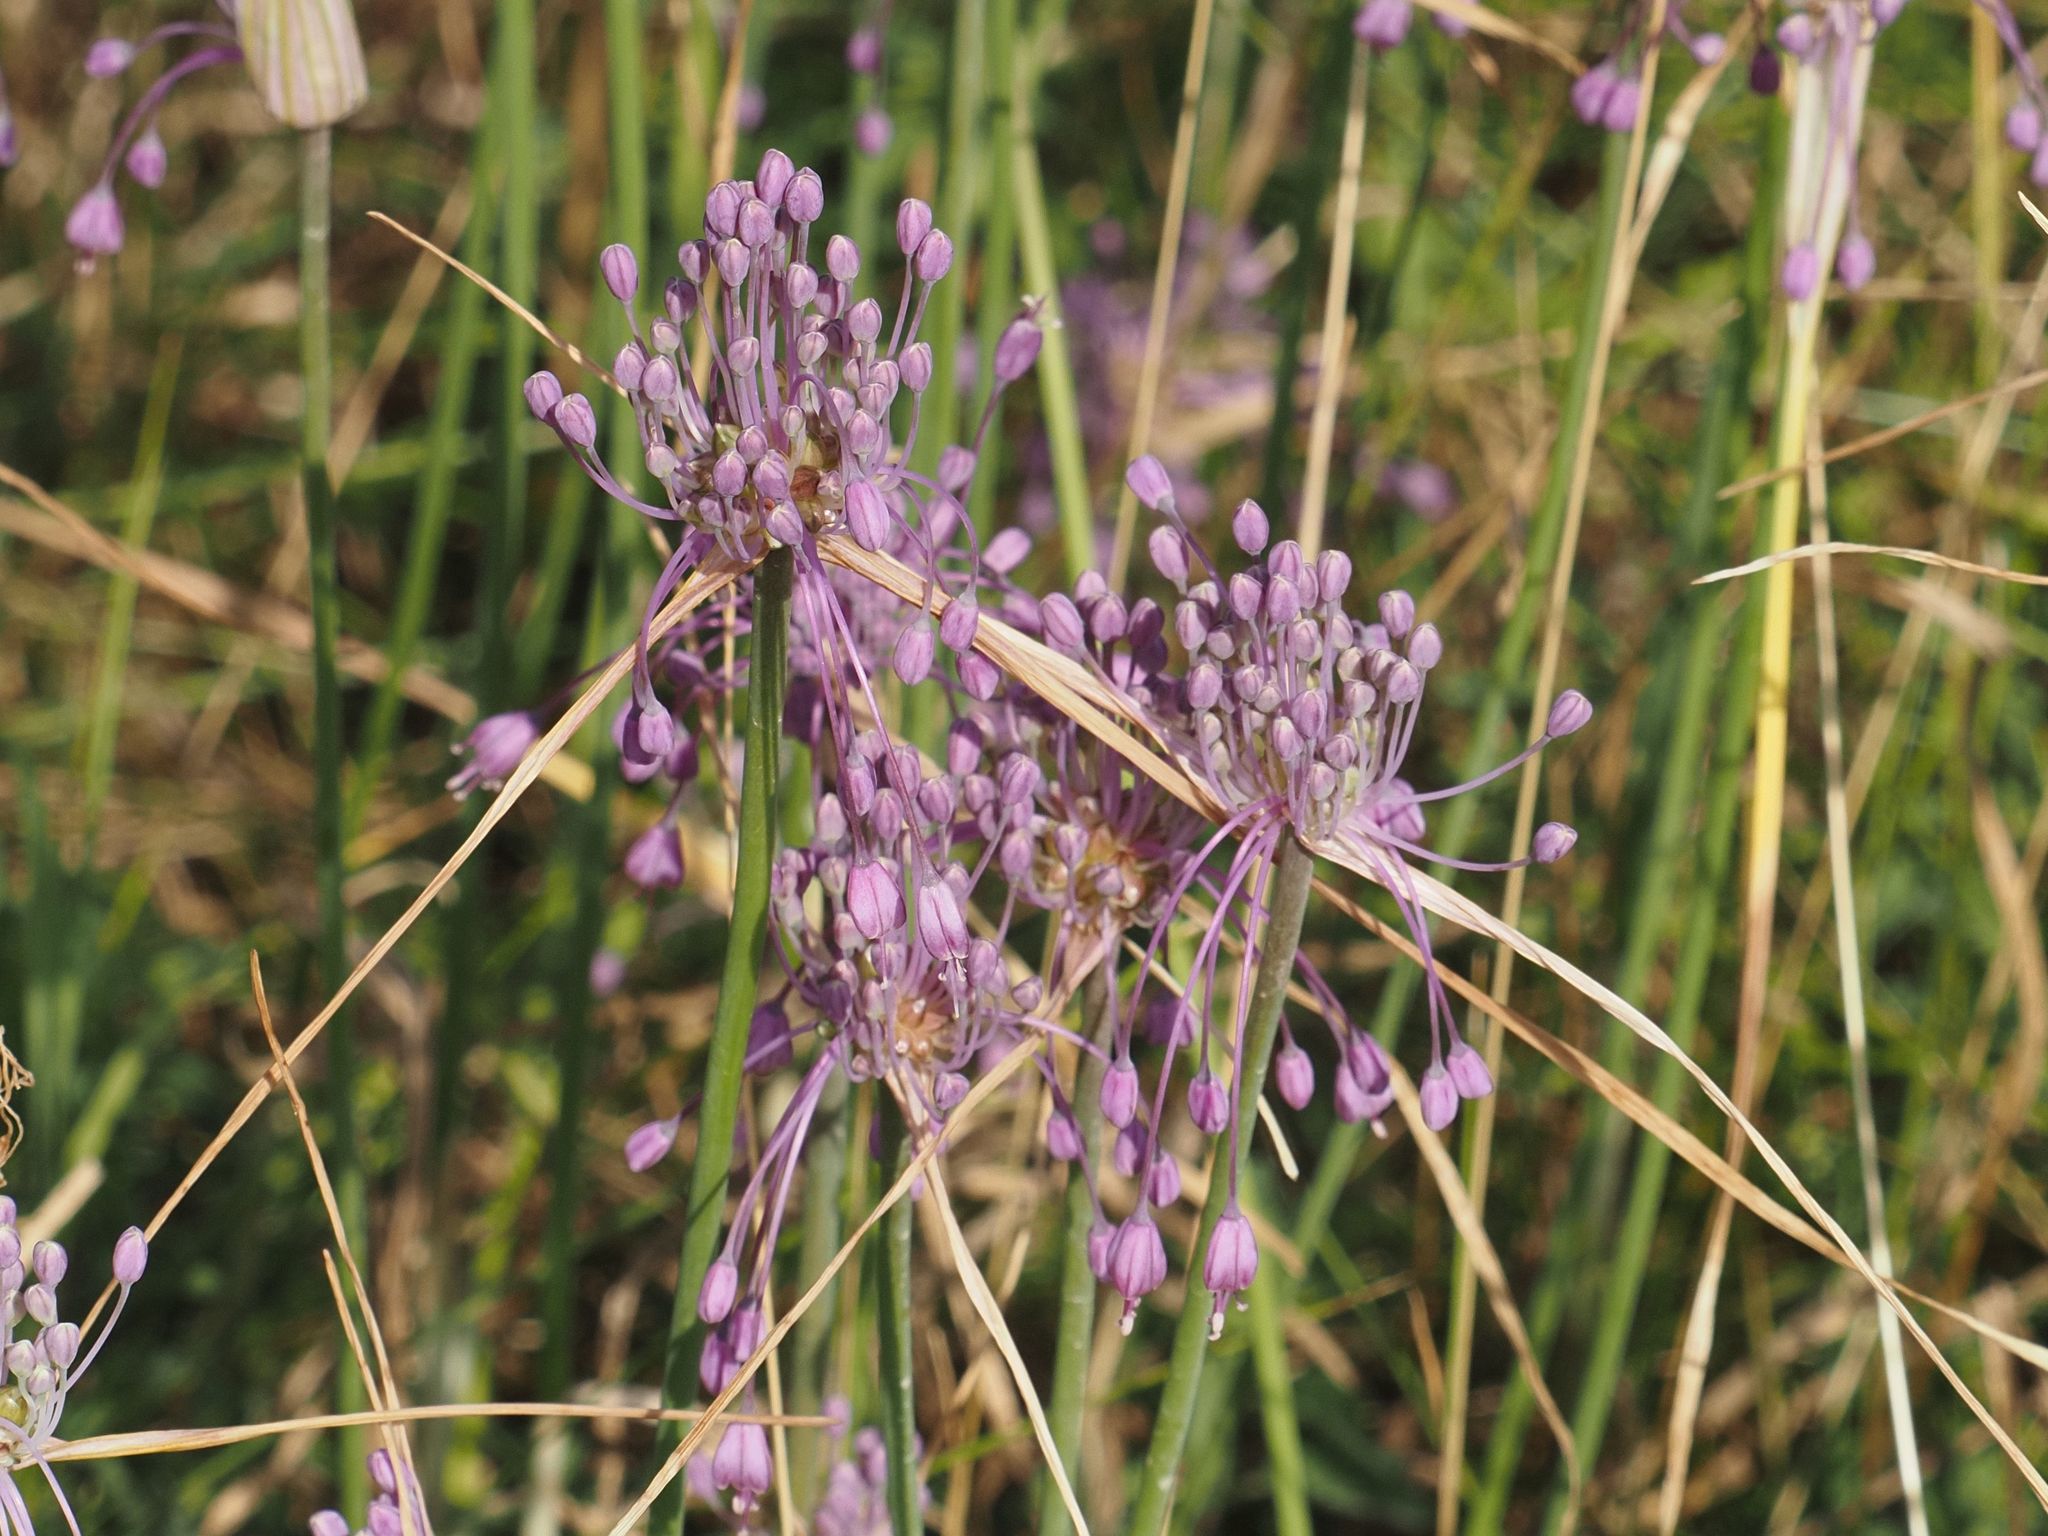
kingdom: Plantae
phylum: Tracheophyta
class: Liliopsida
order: Asparagales
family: Amaryllidaceae
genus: Allium
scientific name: Allium carinatum
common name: Keeled garlic
